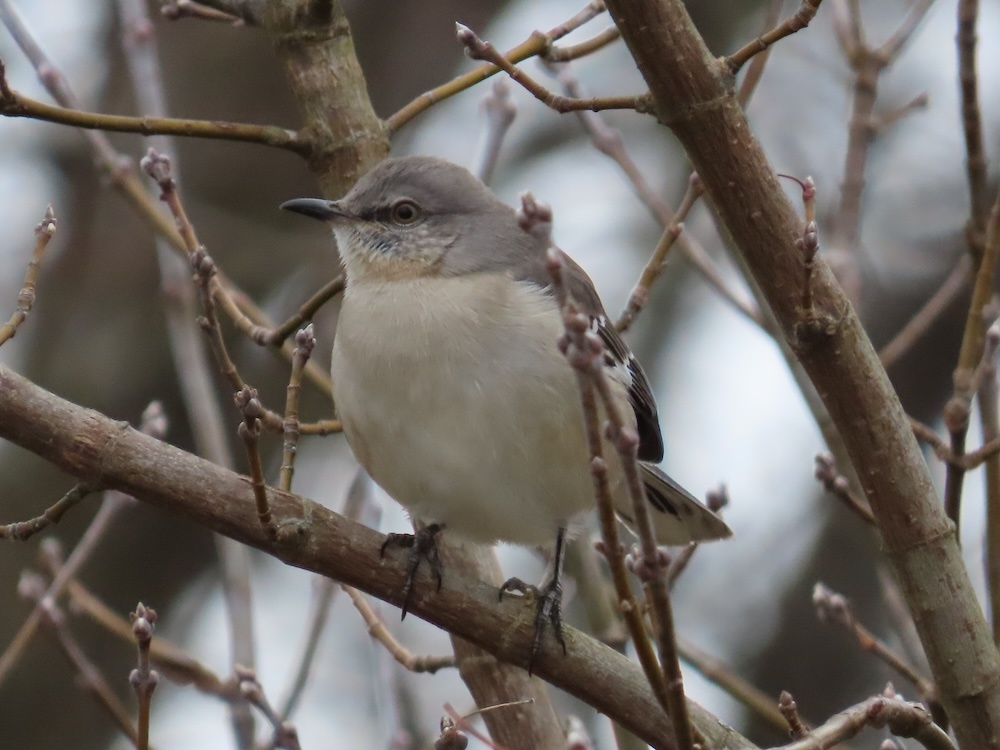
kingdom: Animalia
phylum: Chordata
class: Aves
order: Passeriformes
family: Mimidae
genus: Mimus
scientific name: Mimus polyglottos
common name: Northern mockingbird
